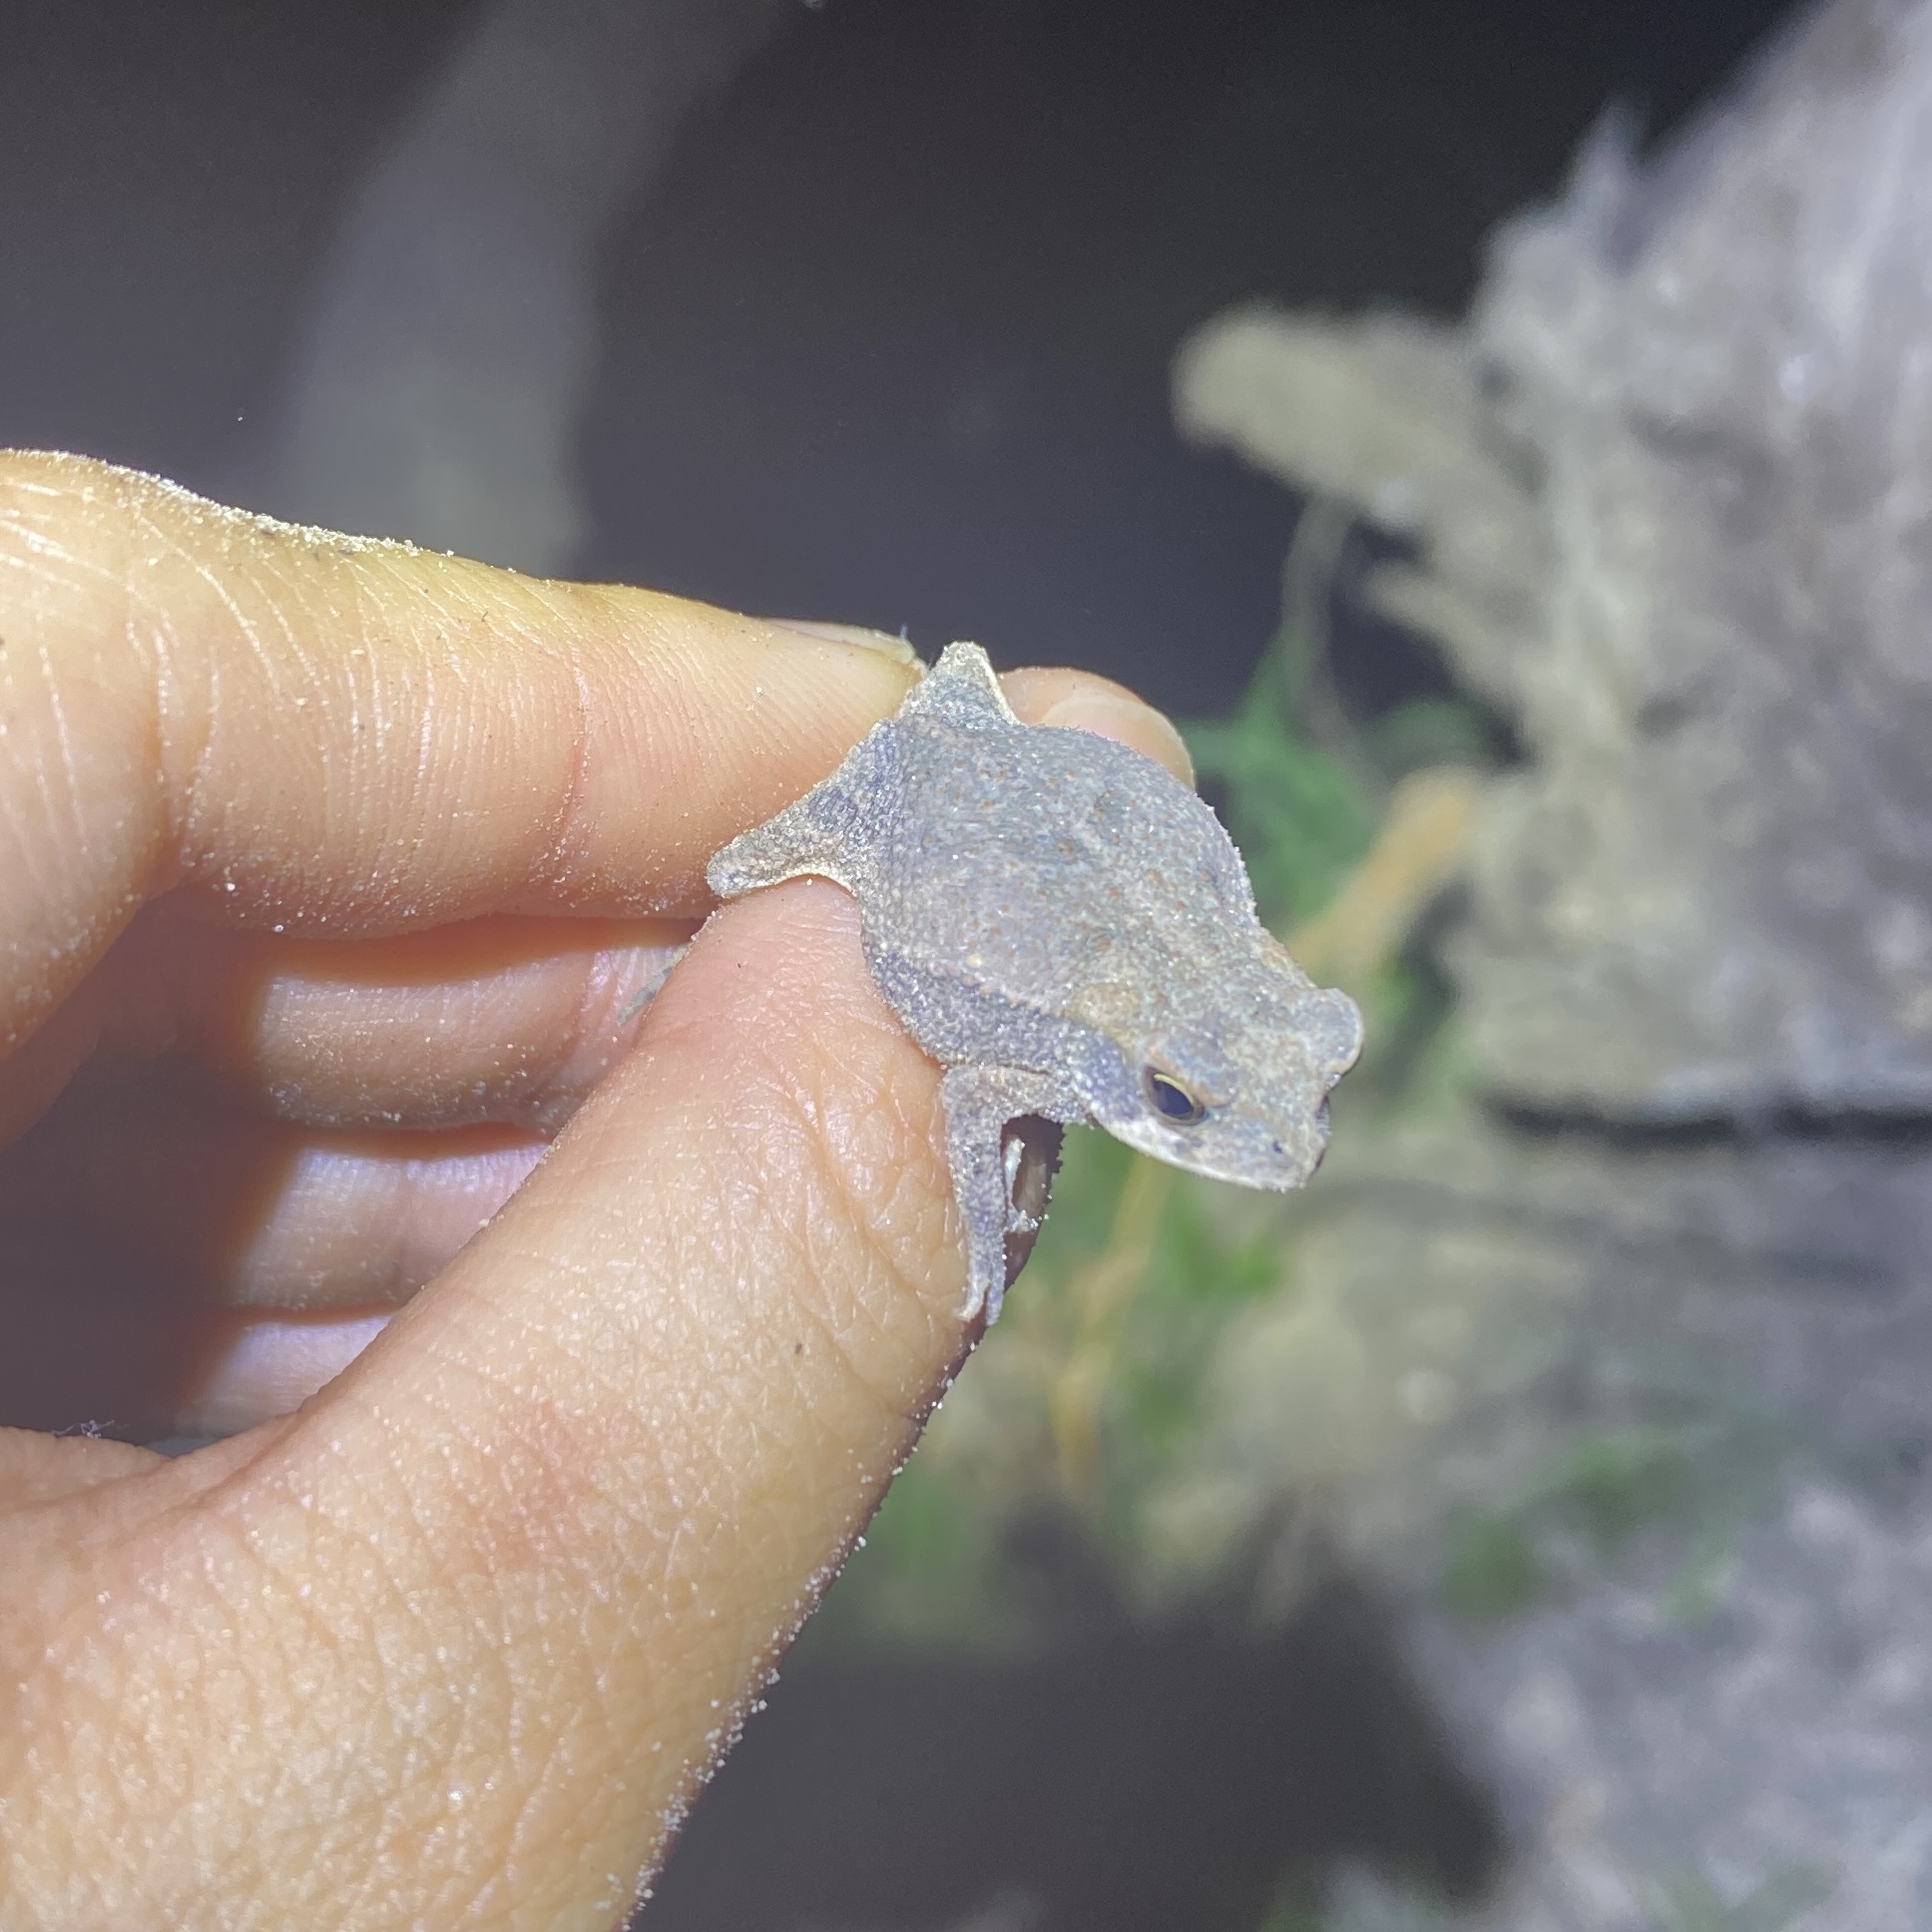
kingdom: Animalia
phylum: Chordata
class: Amphibia
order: Anura
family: Bufonidae
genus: Incilius
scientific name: Incilius nebulifer
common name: Gulf coast toad
